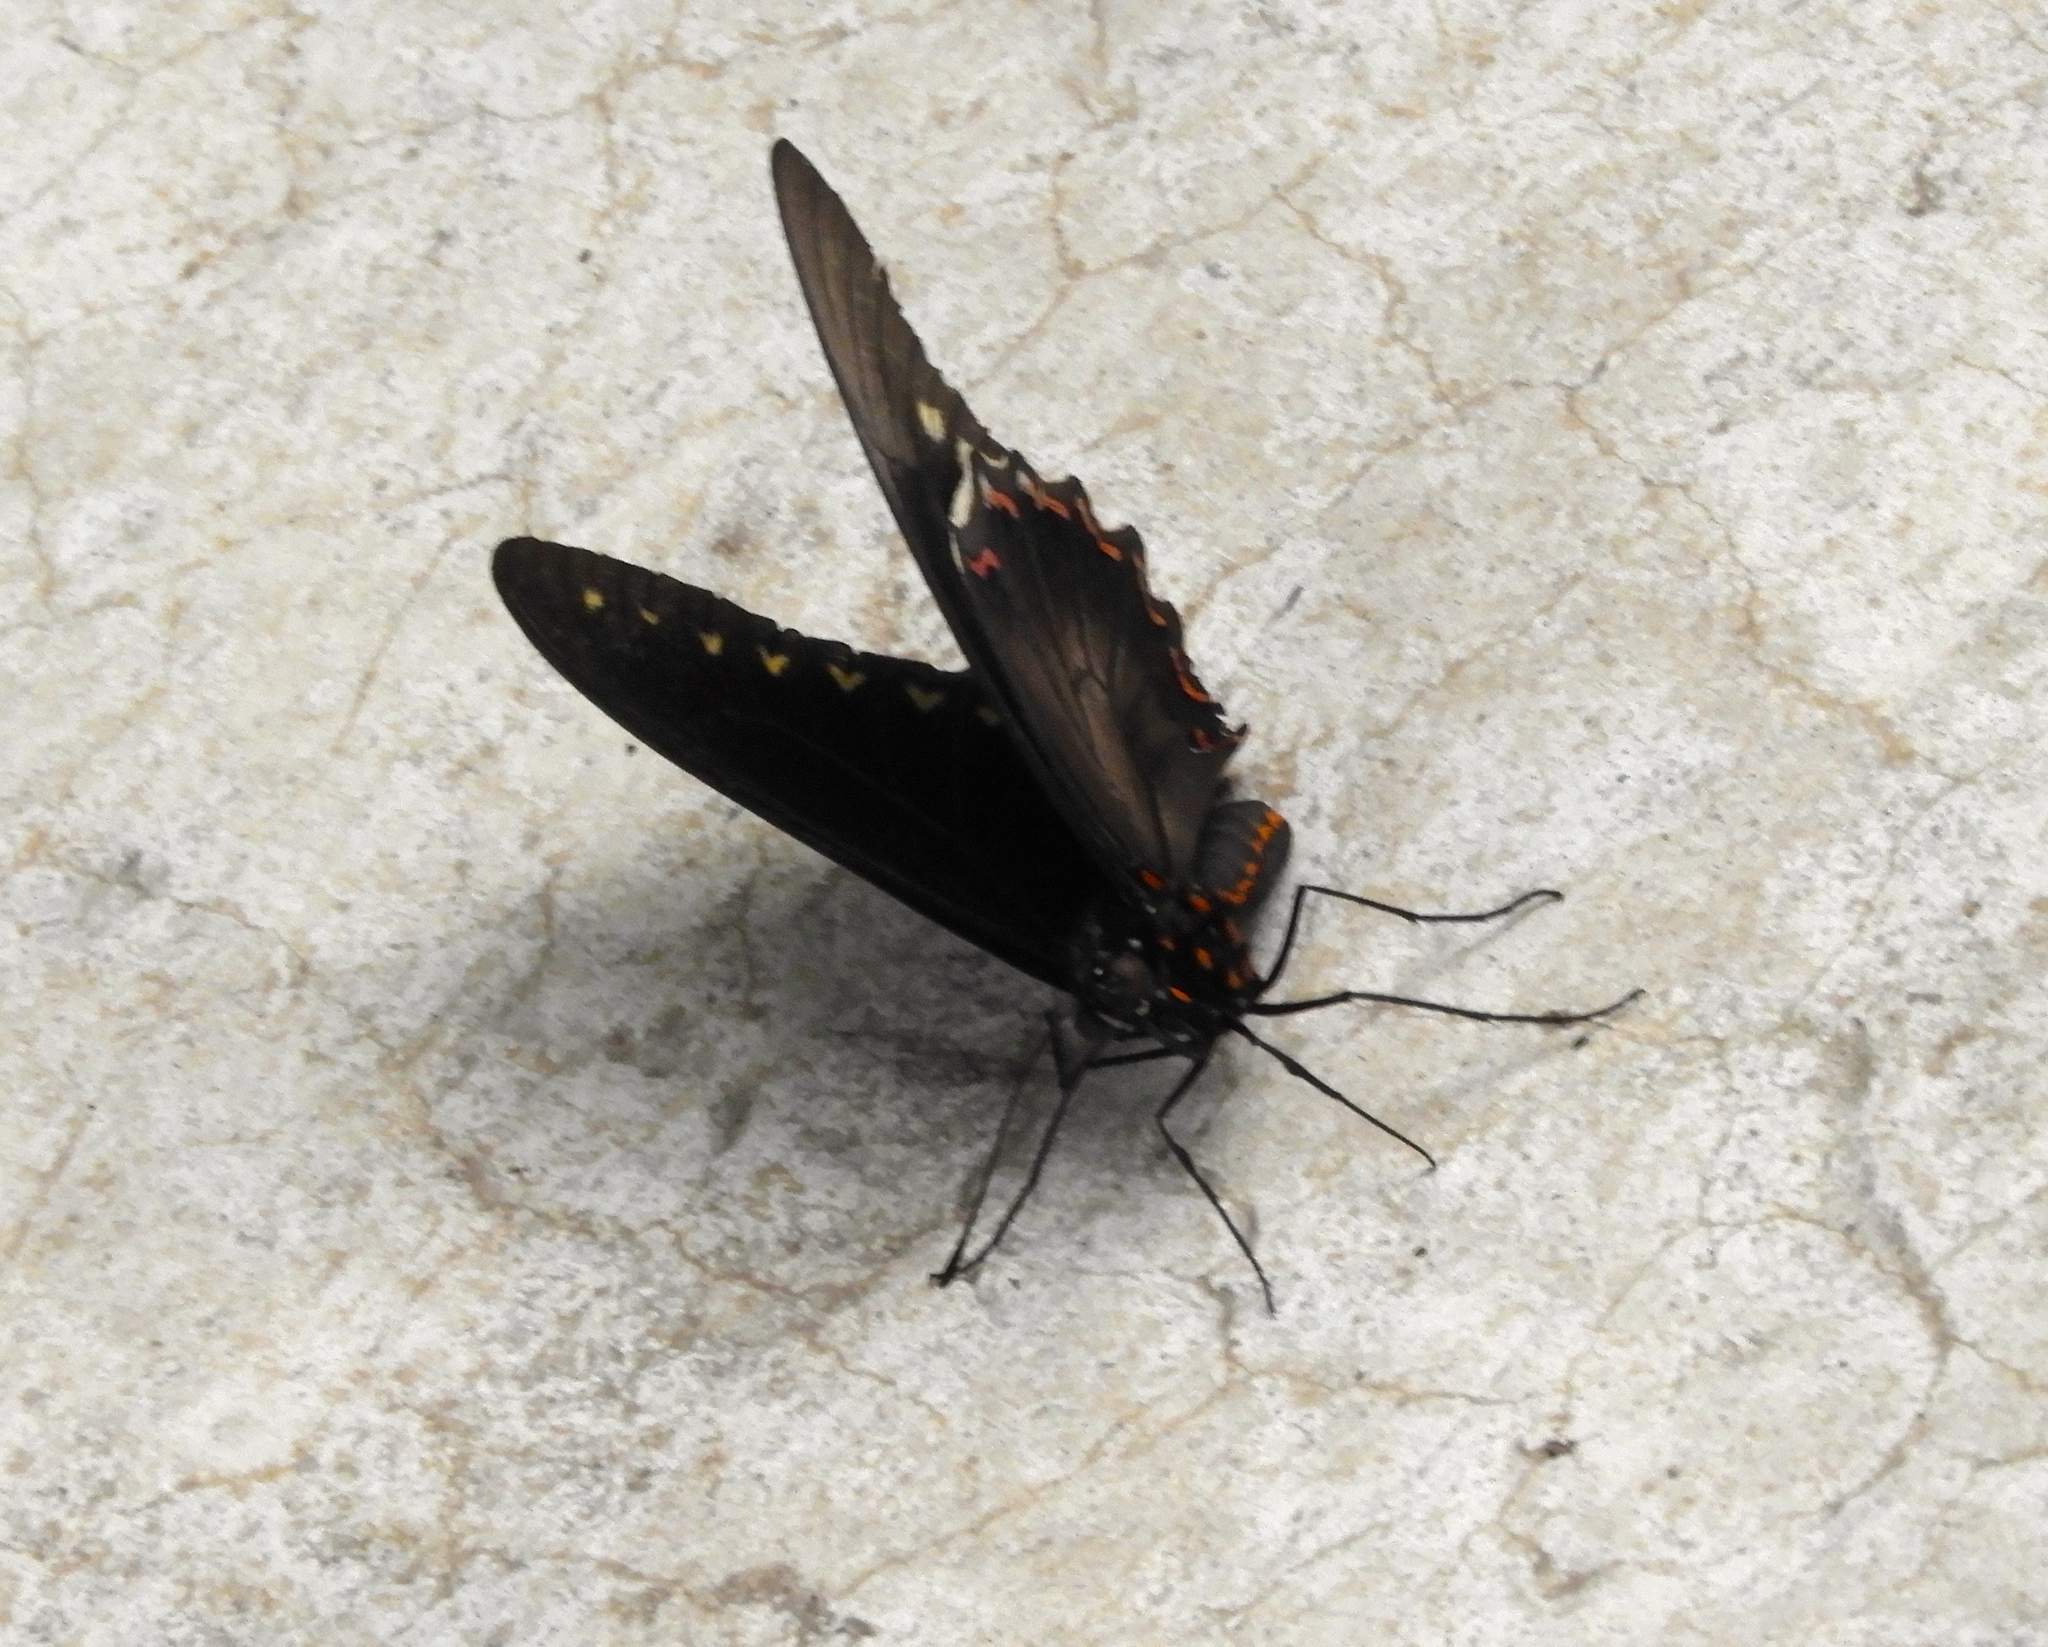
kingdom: Animalia
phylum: Arthropoda
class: Insecta
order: Lepidoptera
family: Papilionidae
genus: Battus
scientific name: Battus polydamas
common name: Polydamas swallowtail
